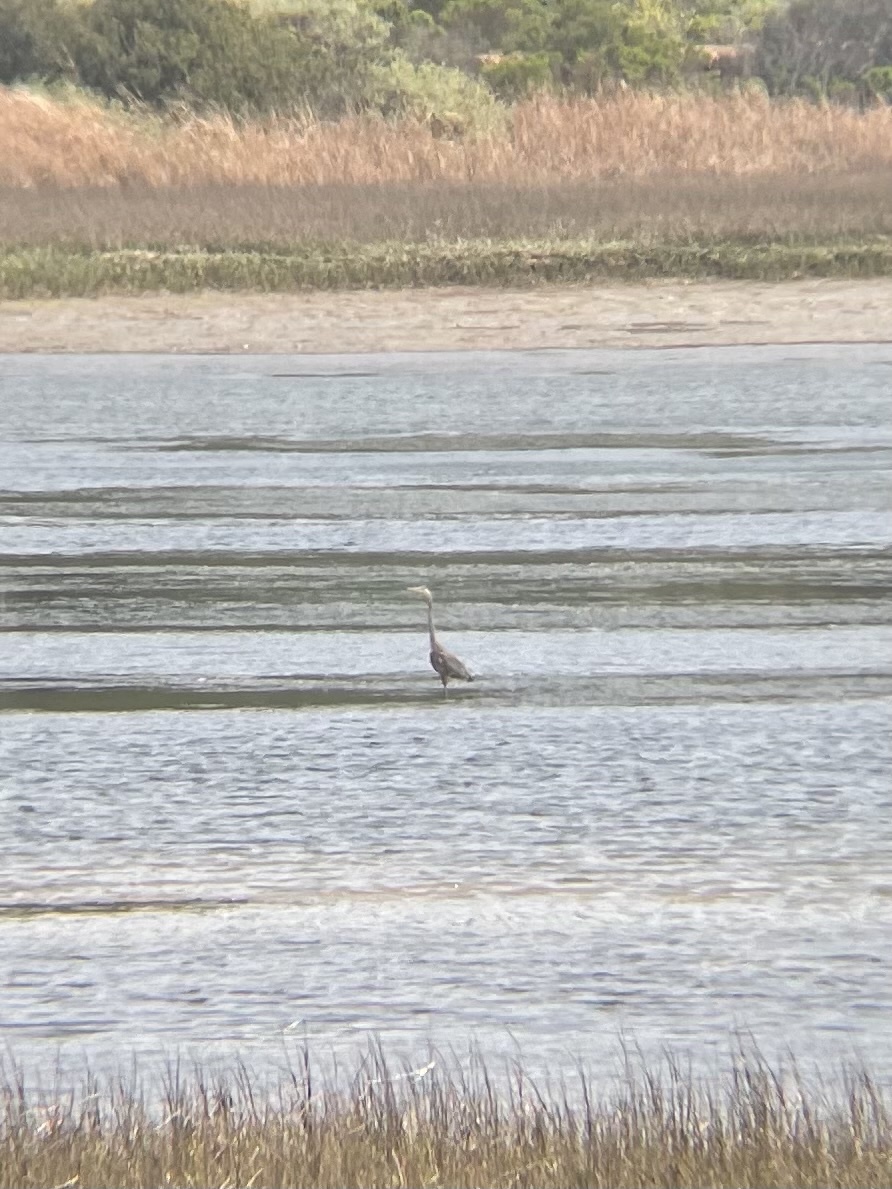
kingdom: Animalia
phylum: Chordata
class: Aves
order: Pelecaniformes
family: Ardeidae
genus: Ardea
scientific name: Ardea herodias
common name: Great blue heron
